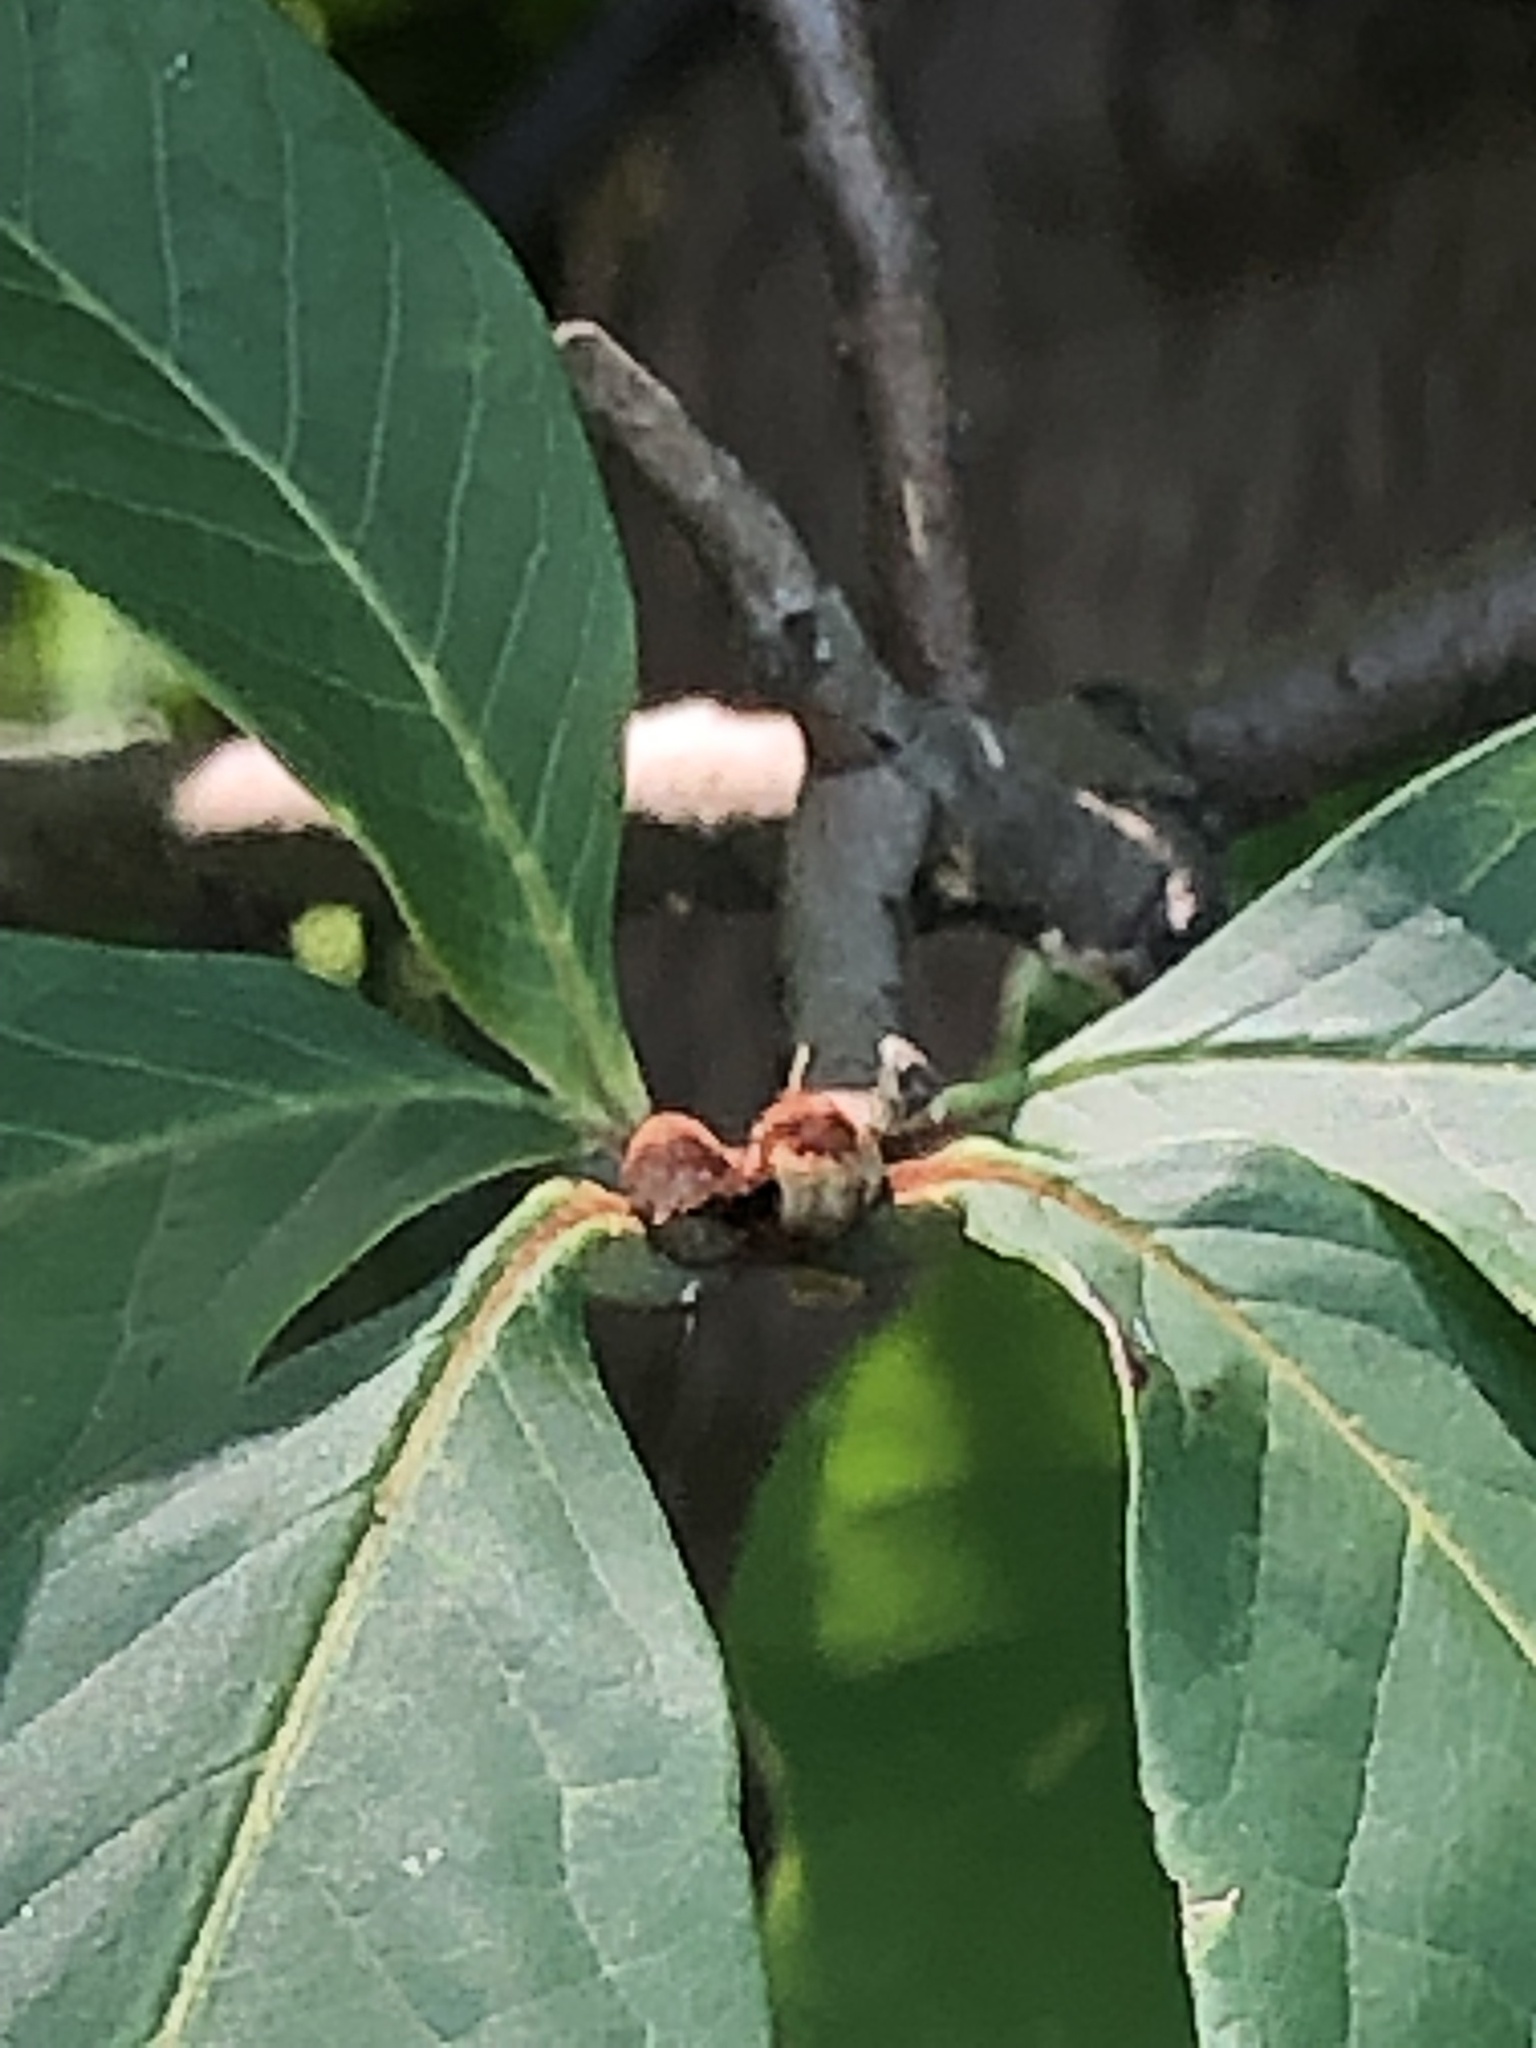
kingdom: Plantae
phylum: Tracheophyta
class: Magnoliopsida
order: Magnoliales
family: Annonaceae
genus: Asimina
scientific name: Asimina triloba
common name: Dog-banana
